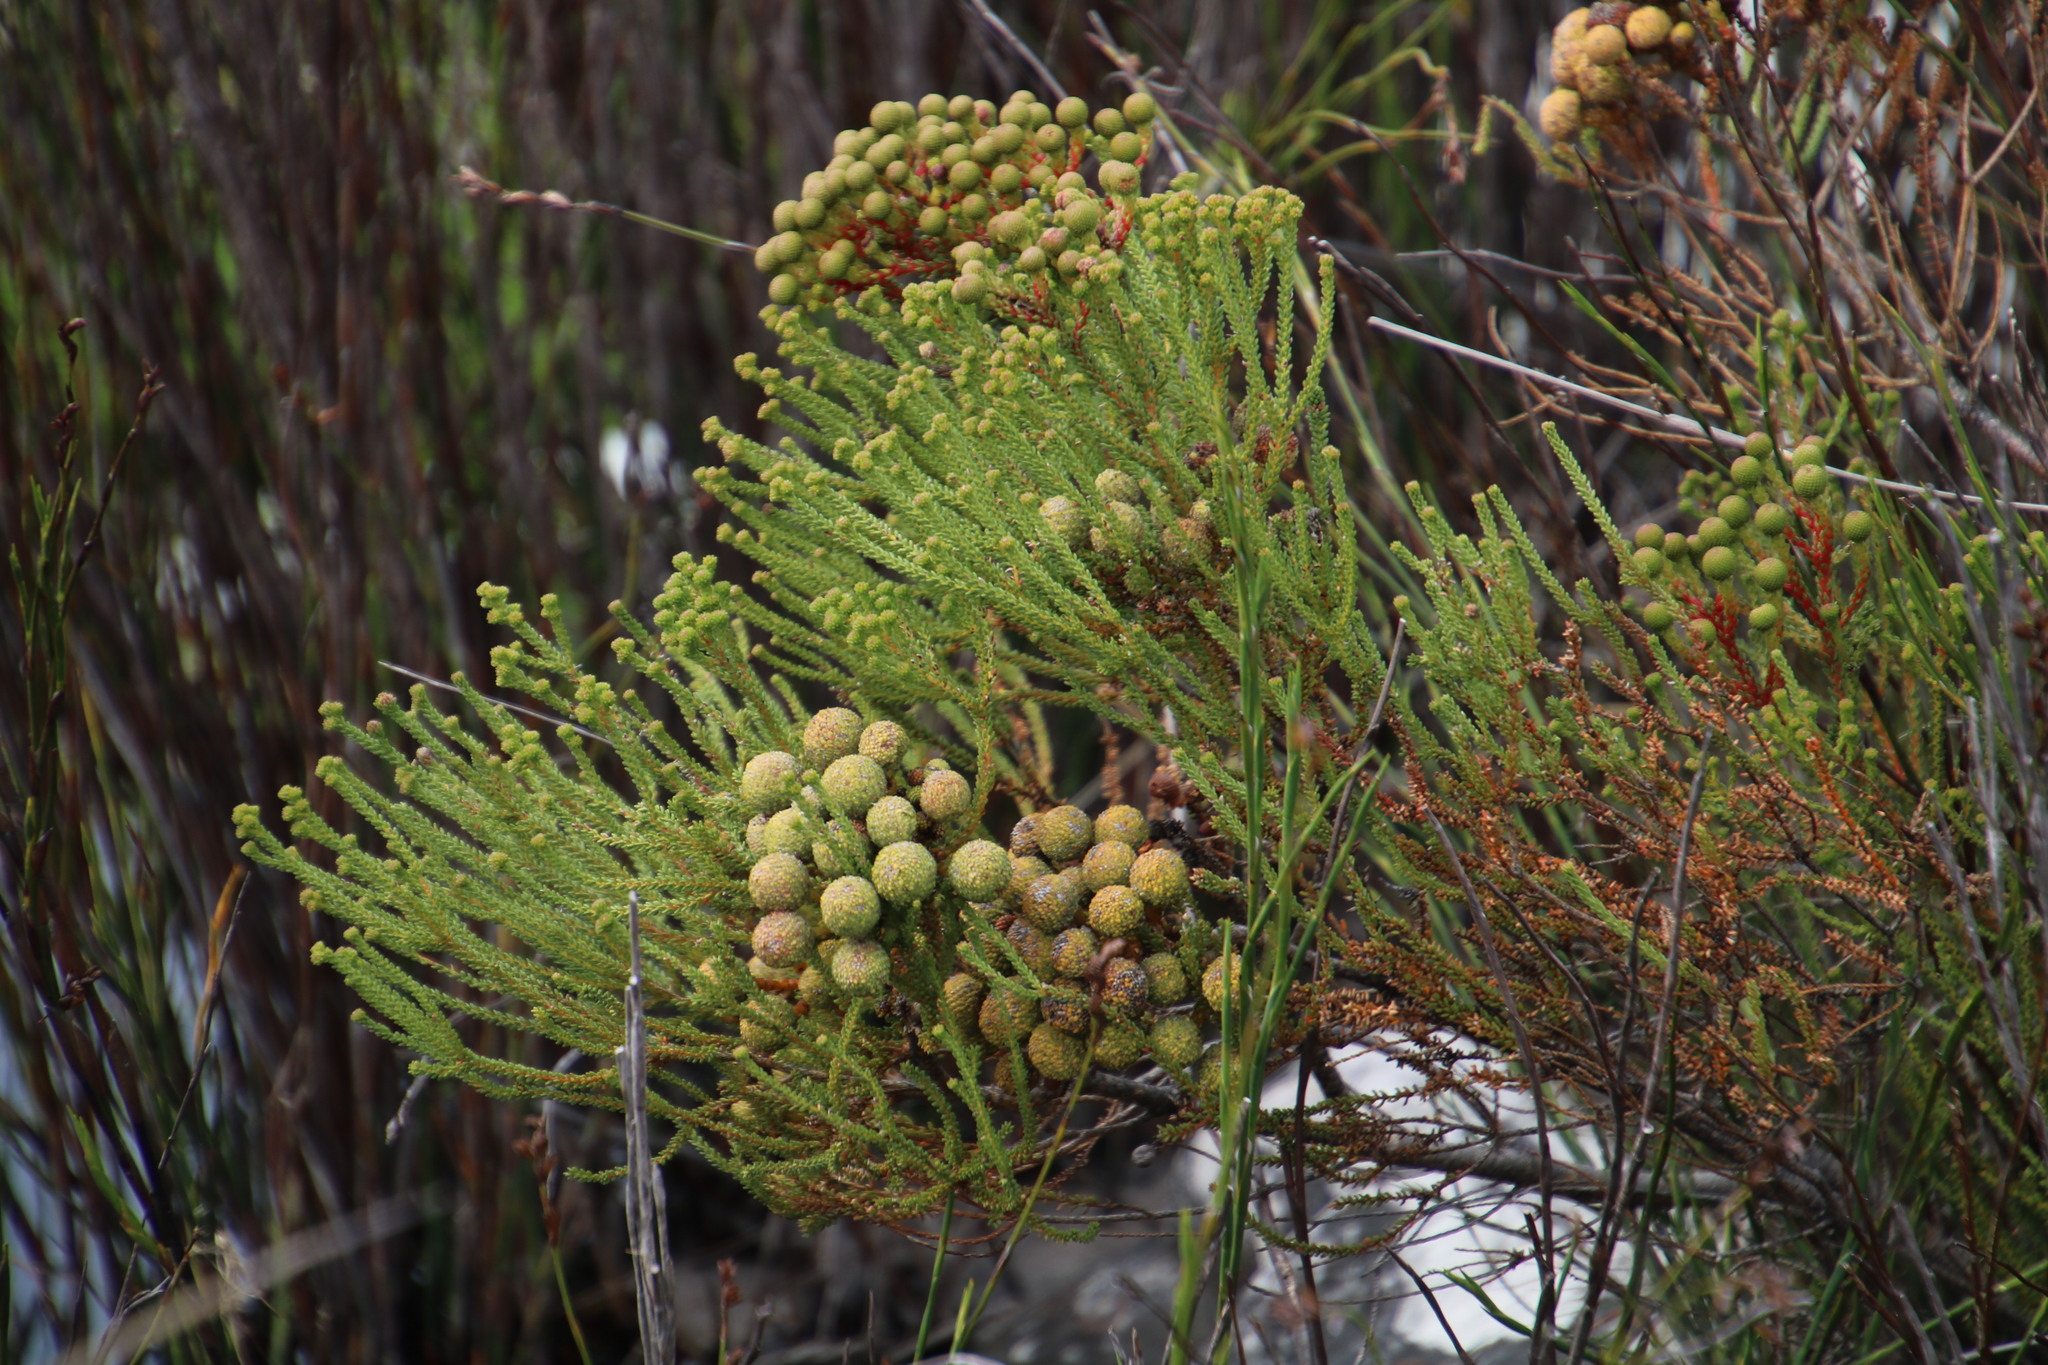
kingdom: Plantae
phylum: Tracheophyta
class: Magnoliopsida
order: Bruniales
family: Bruniaceae
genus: Berzelia
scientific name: Berzelia abrotanoides
